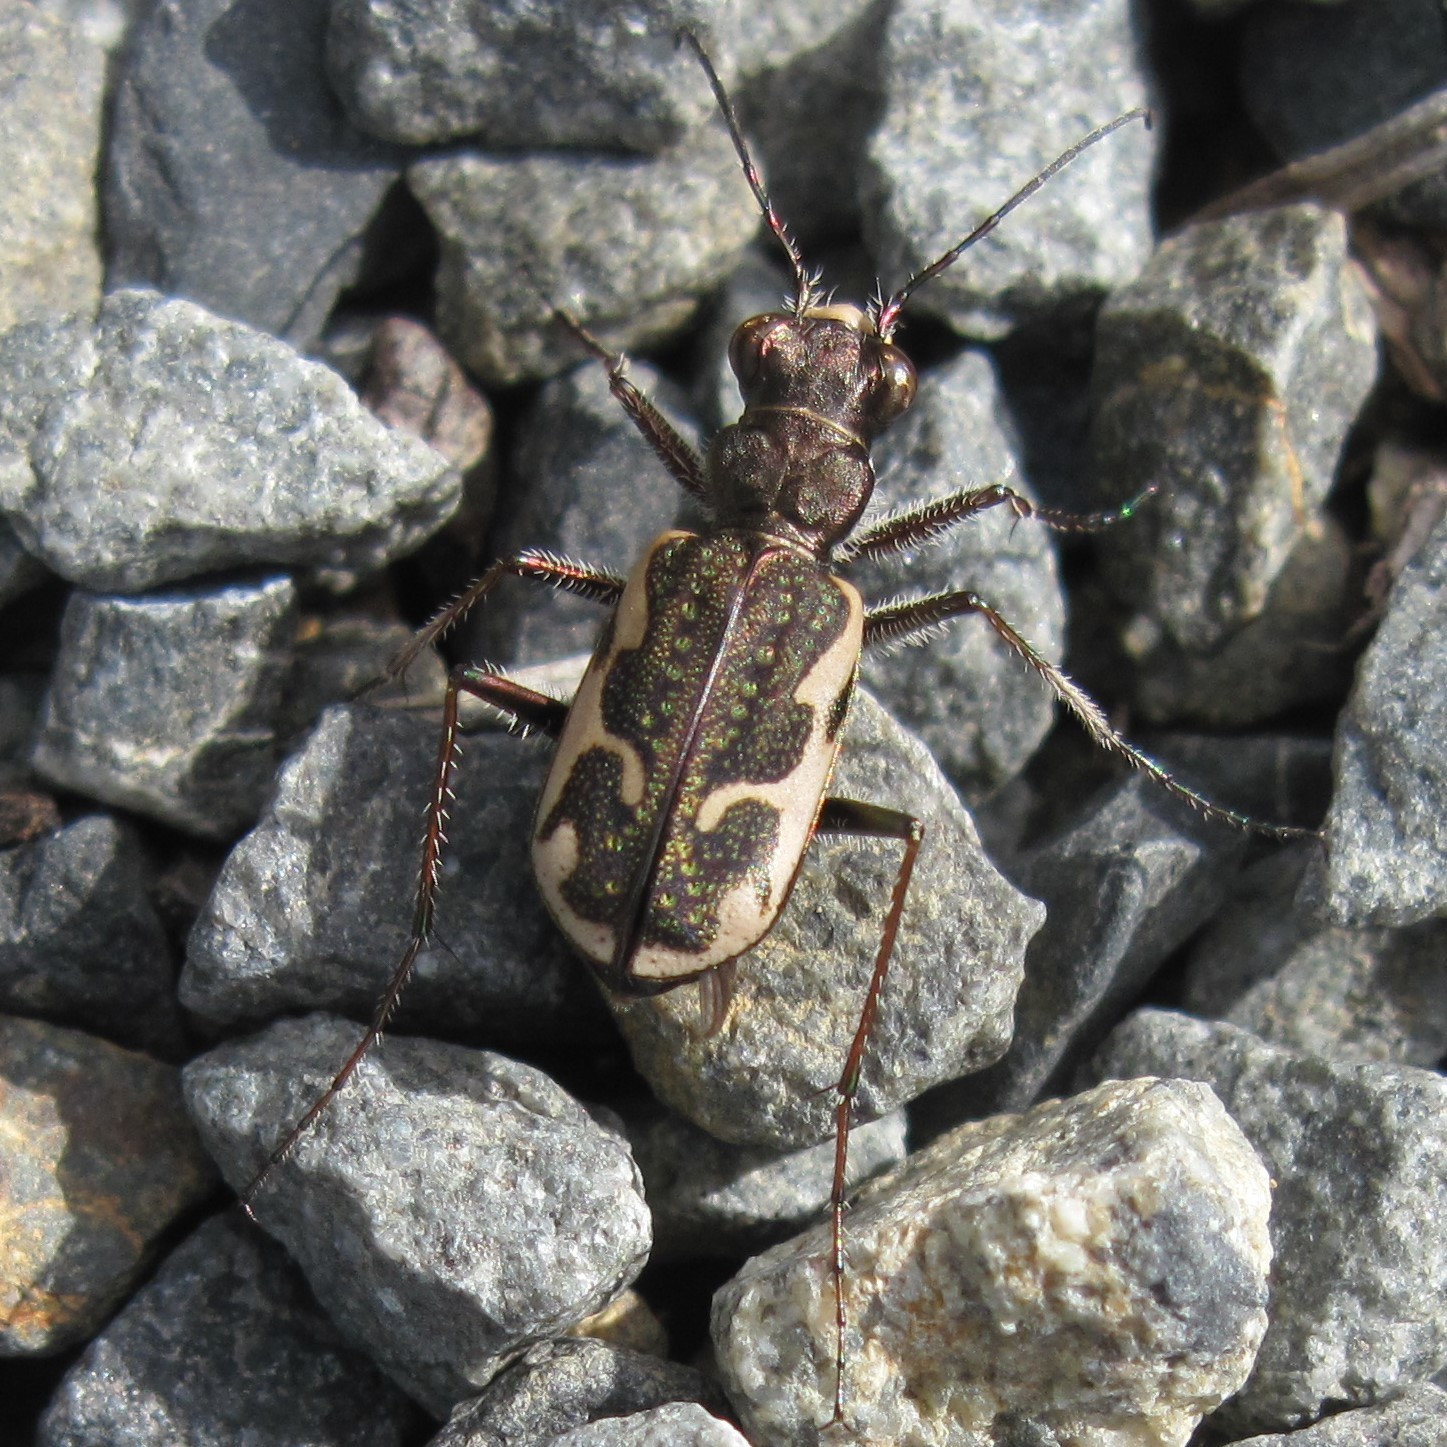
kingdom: Animalia
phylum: Arthropoda
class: Insecta
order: Coleoptera
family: Carabidae
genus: Neocicindela
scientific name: Neocicindela tuberculata
